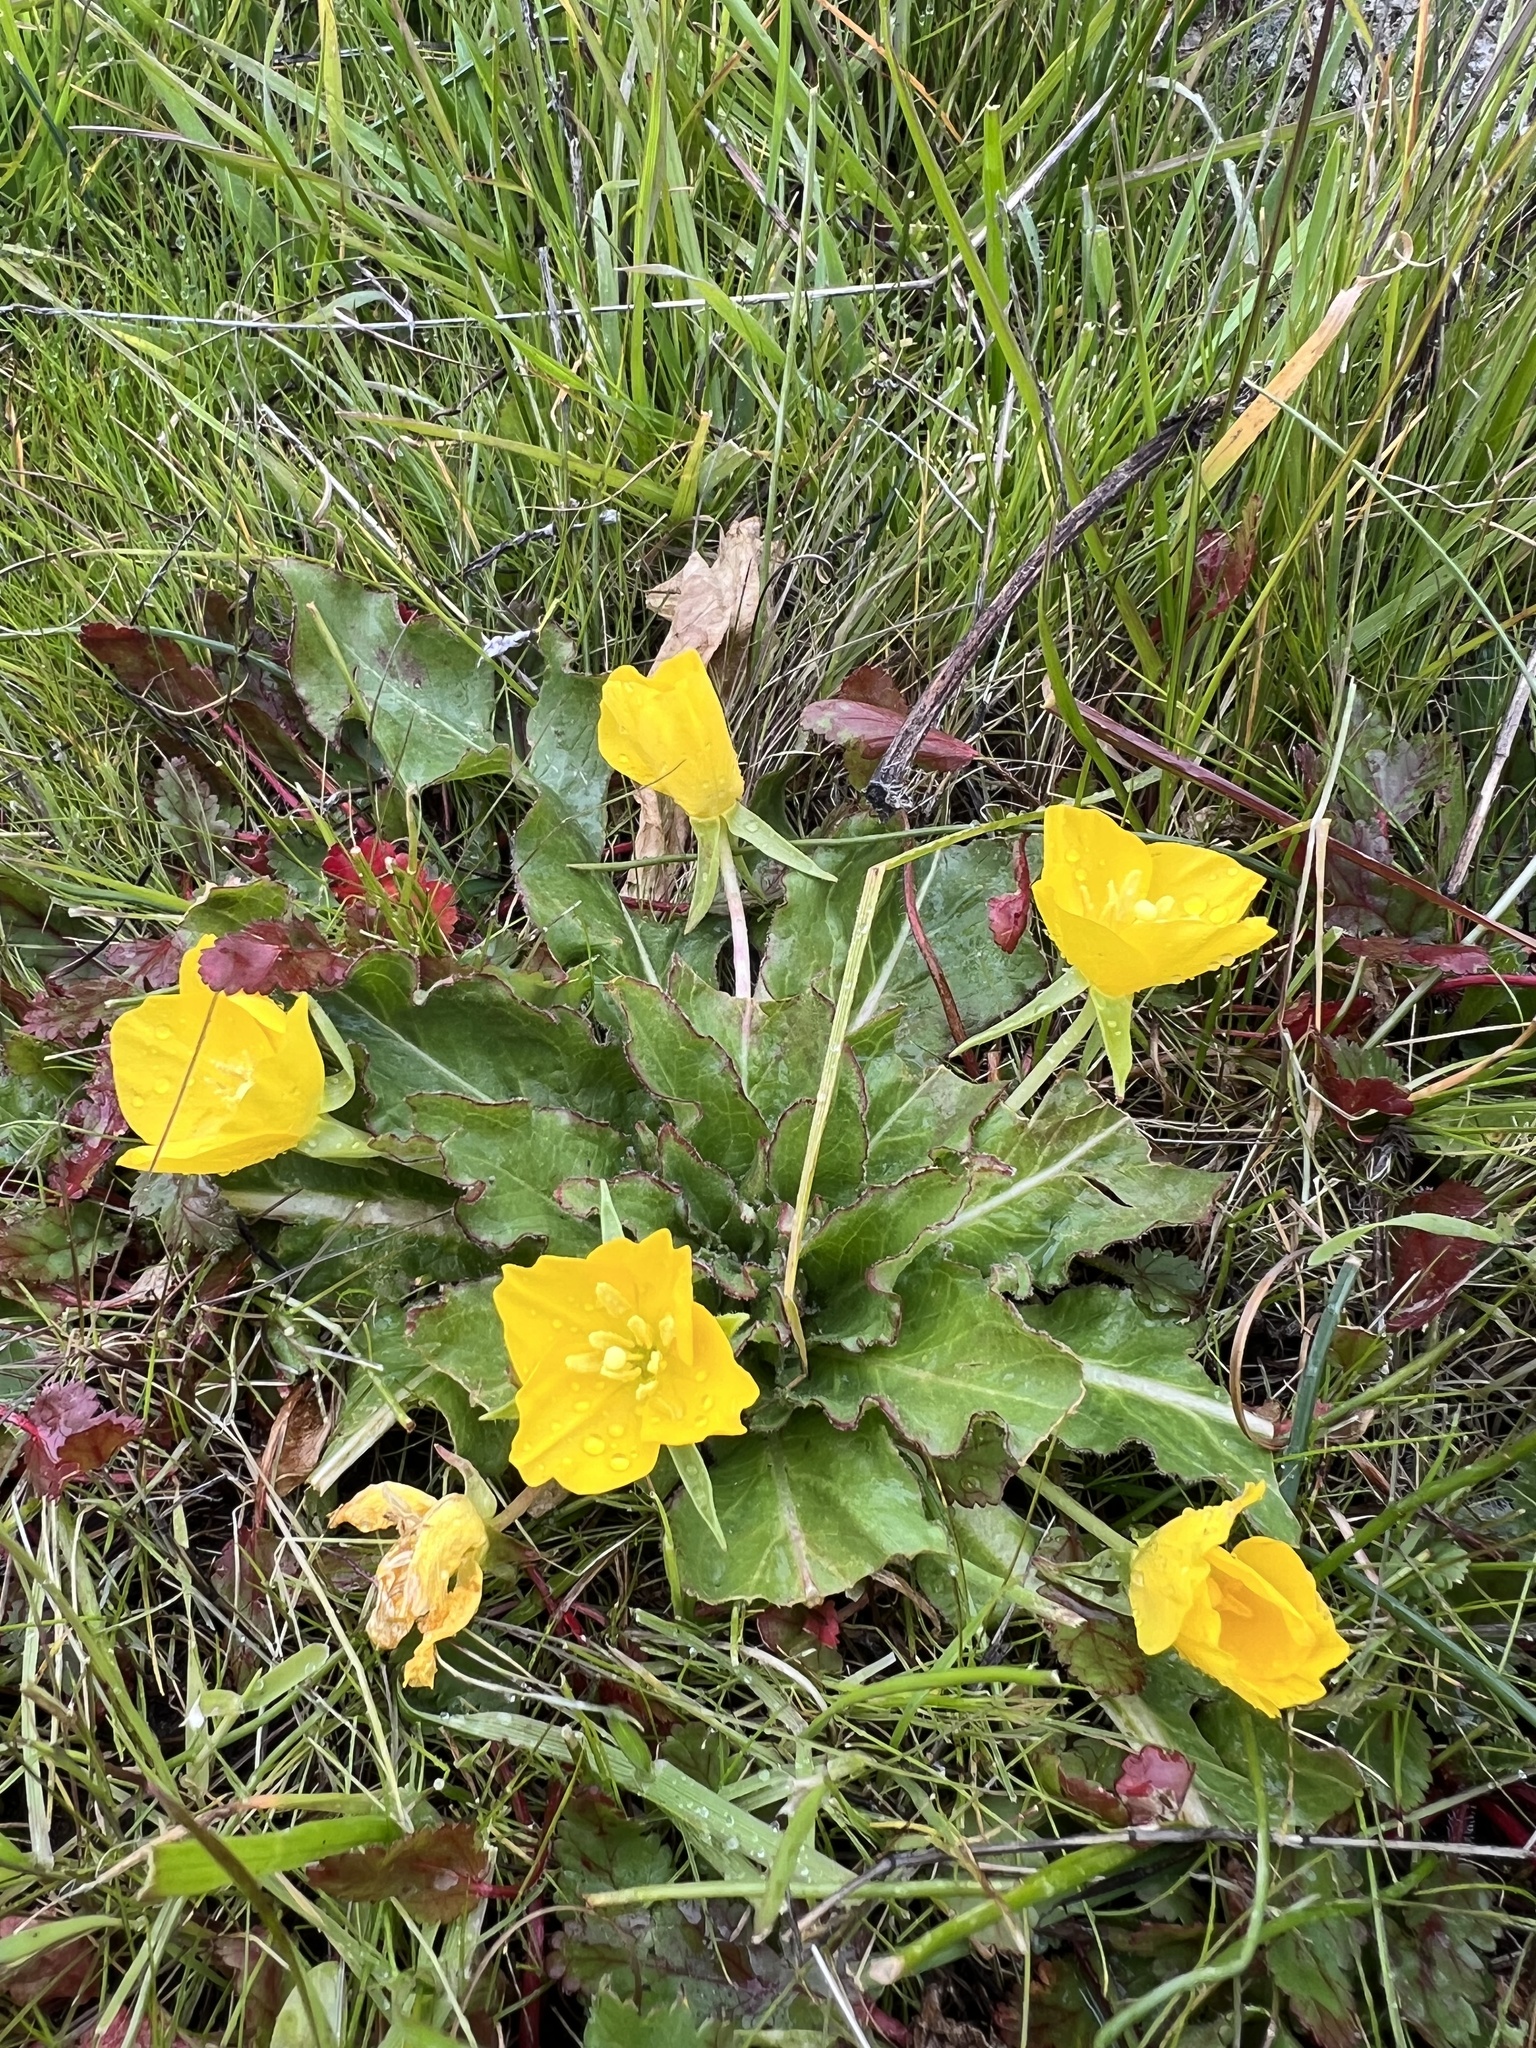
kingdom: Plantae
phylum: Tracheophyta
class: Magnoliopsida
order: Myrtales
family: Onagraceae
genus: Taraxia
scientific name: Taraxia ovata
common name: Goldeneggs
